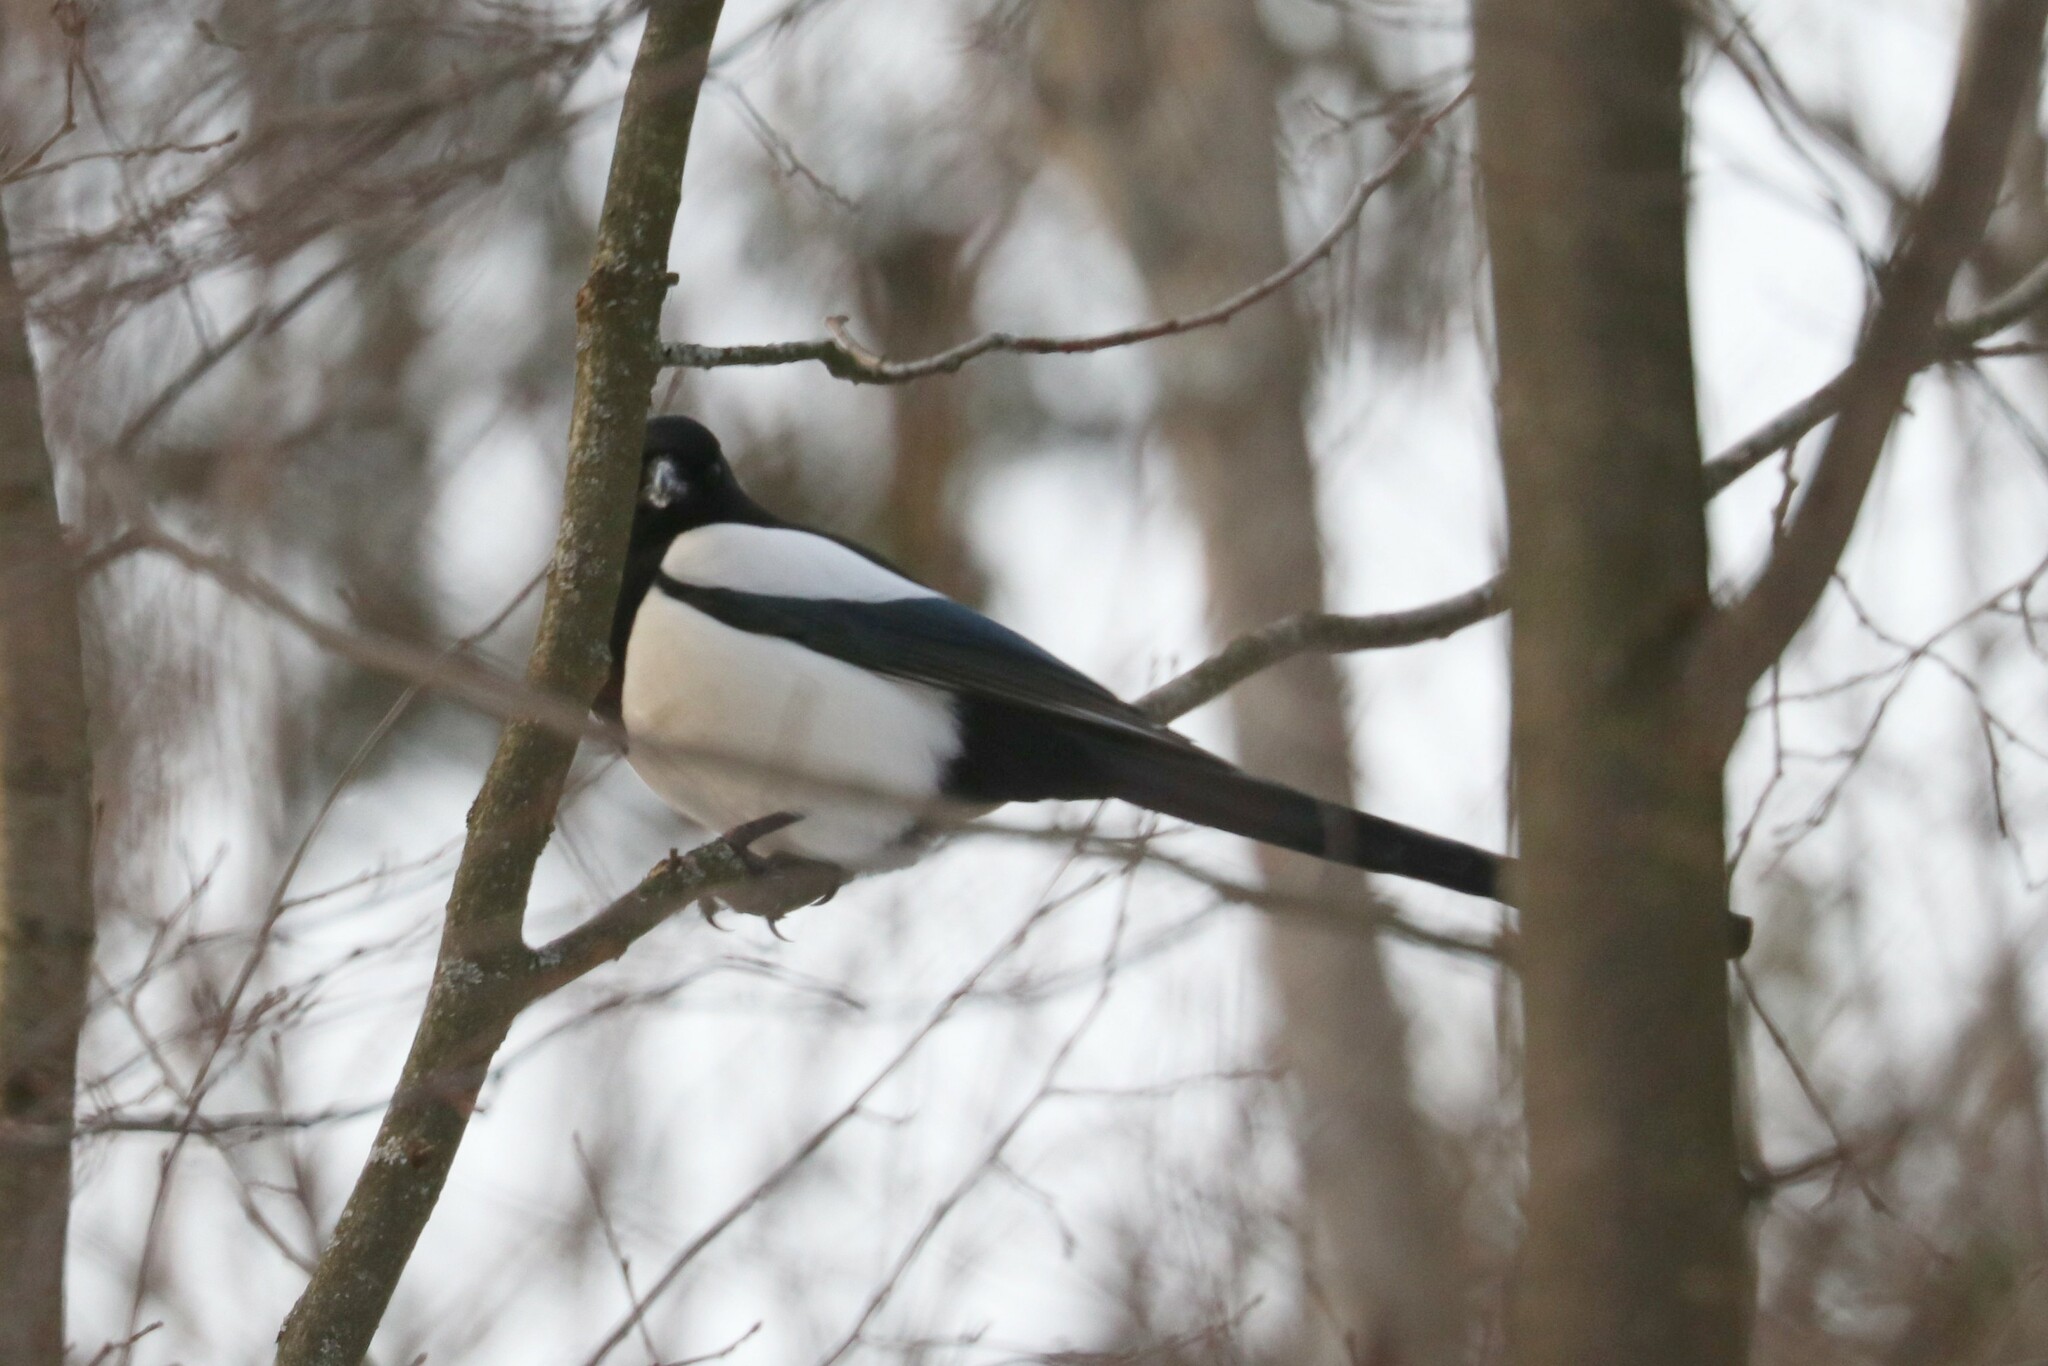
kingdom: Animalia
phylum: Chordata
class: Aves
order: Passeriformes
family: Corvidae
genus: Pica
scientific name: Pica pica
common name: Eurasian magpie
